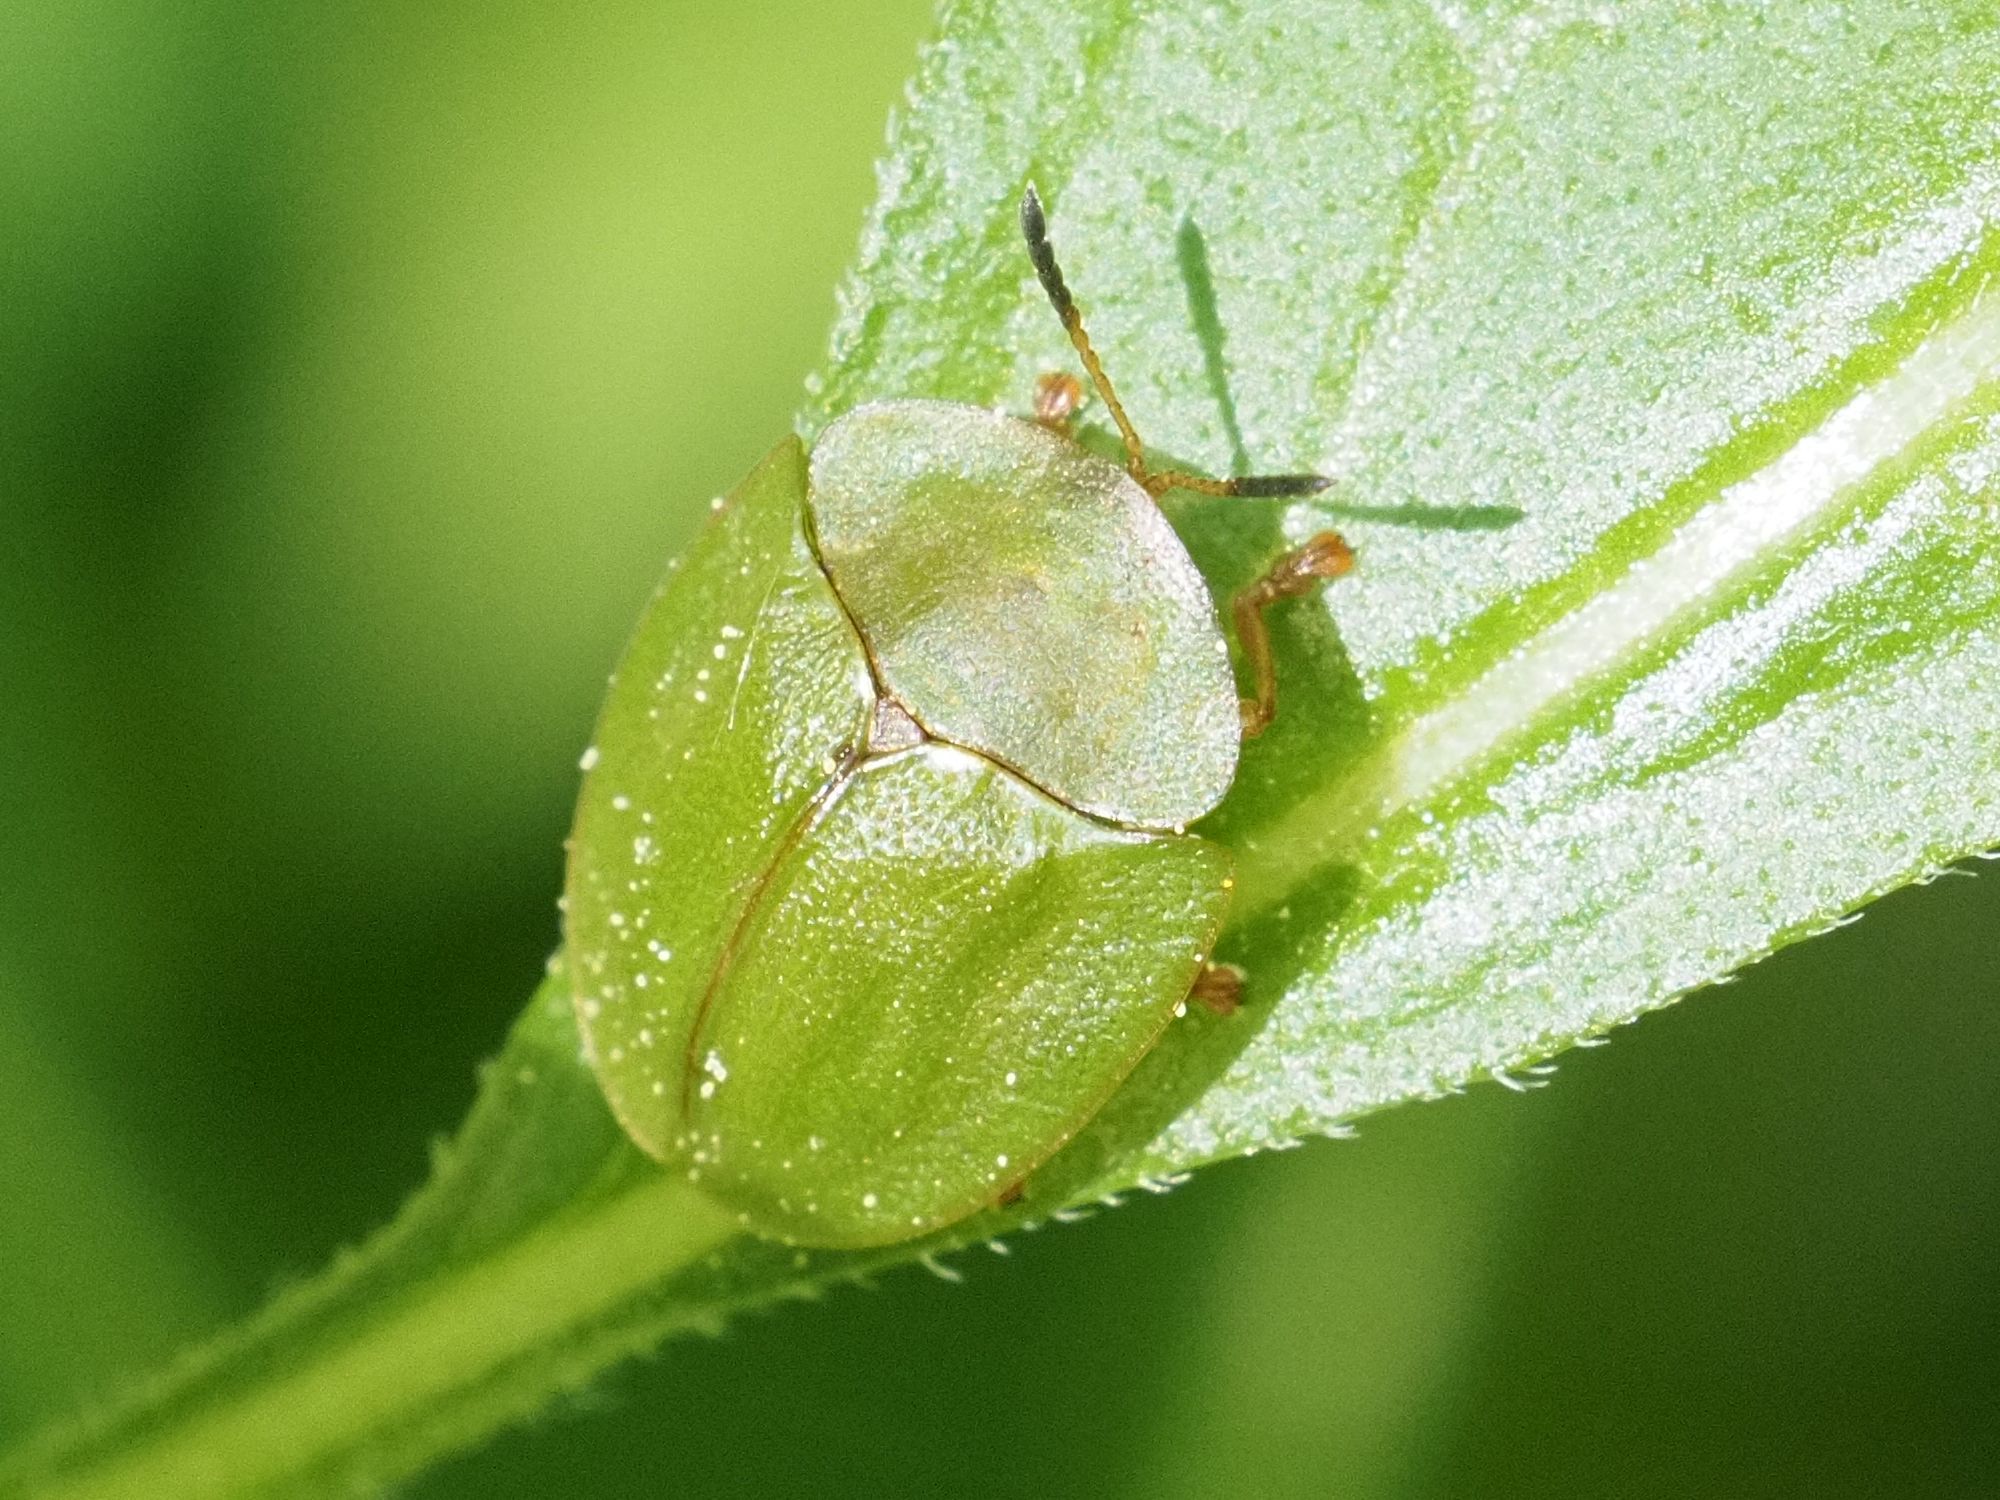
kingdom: Animalia
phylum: Arthropoda
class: Insecta
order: Coleoptera
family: Chrysomelidae
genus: Cassida
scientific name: Cassida viridis
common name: Green tortoise beetle
